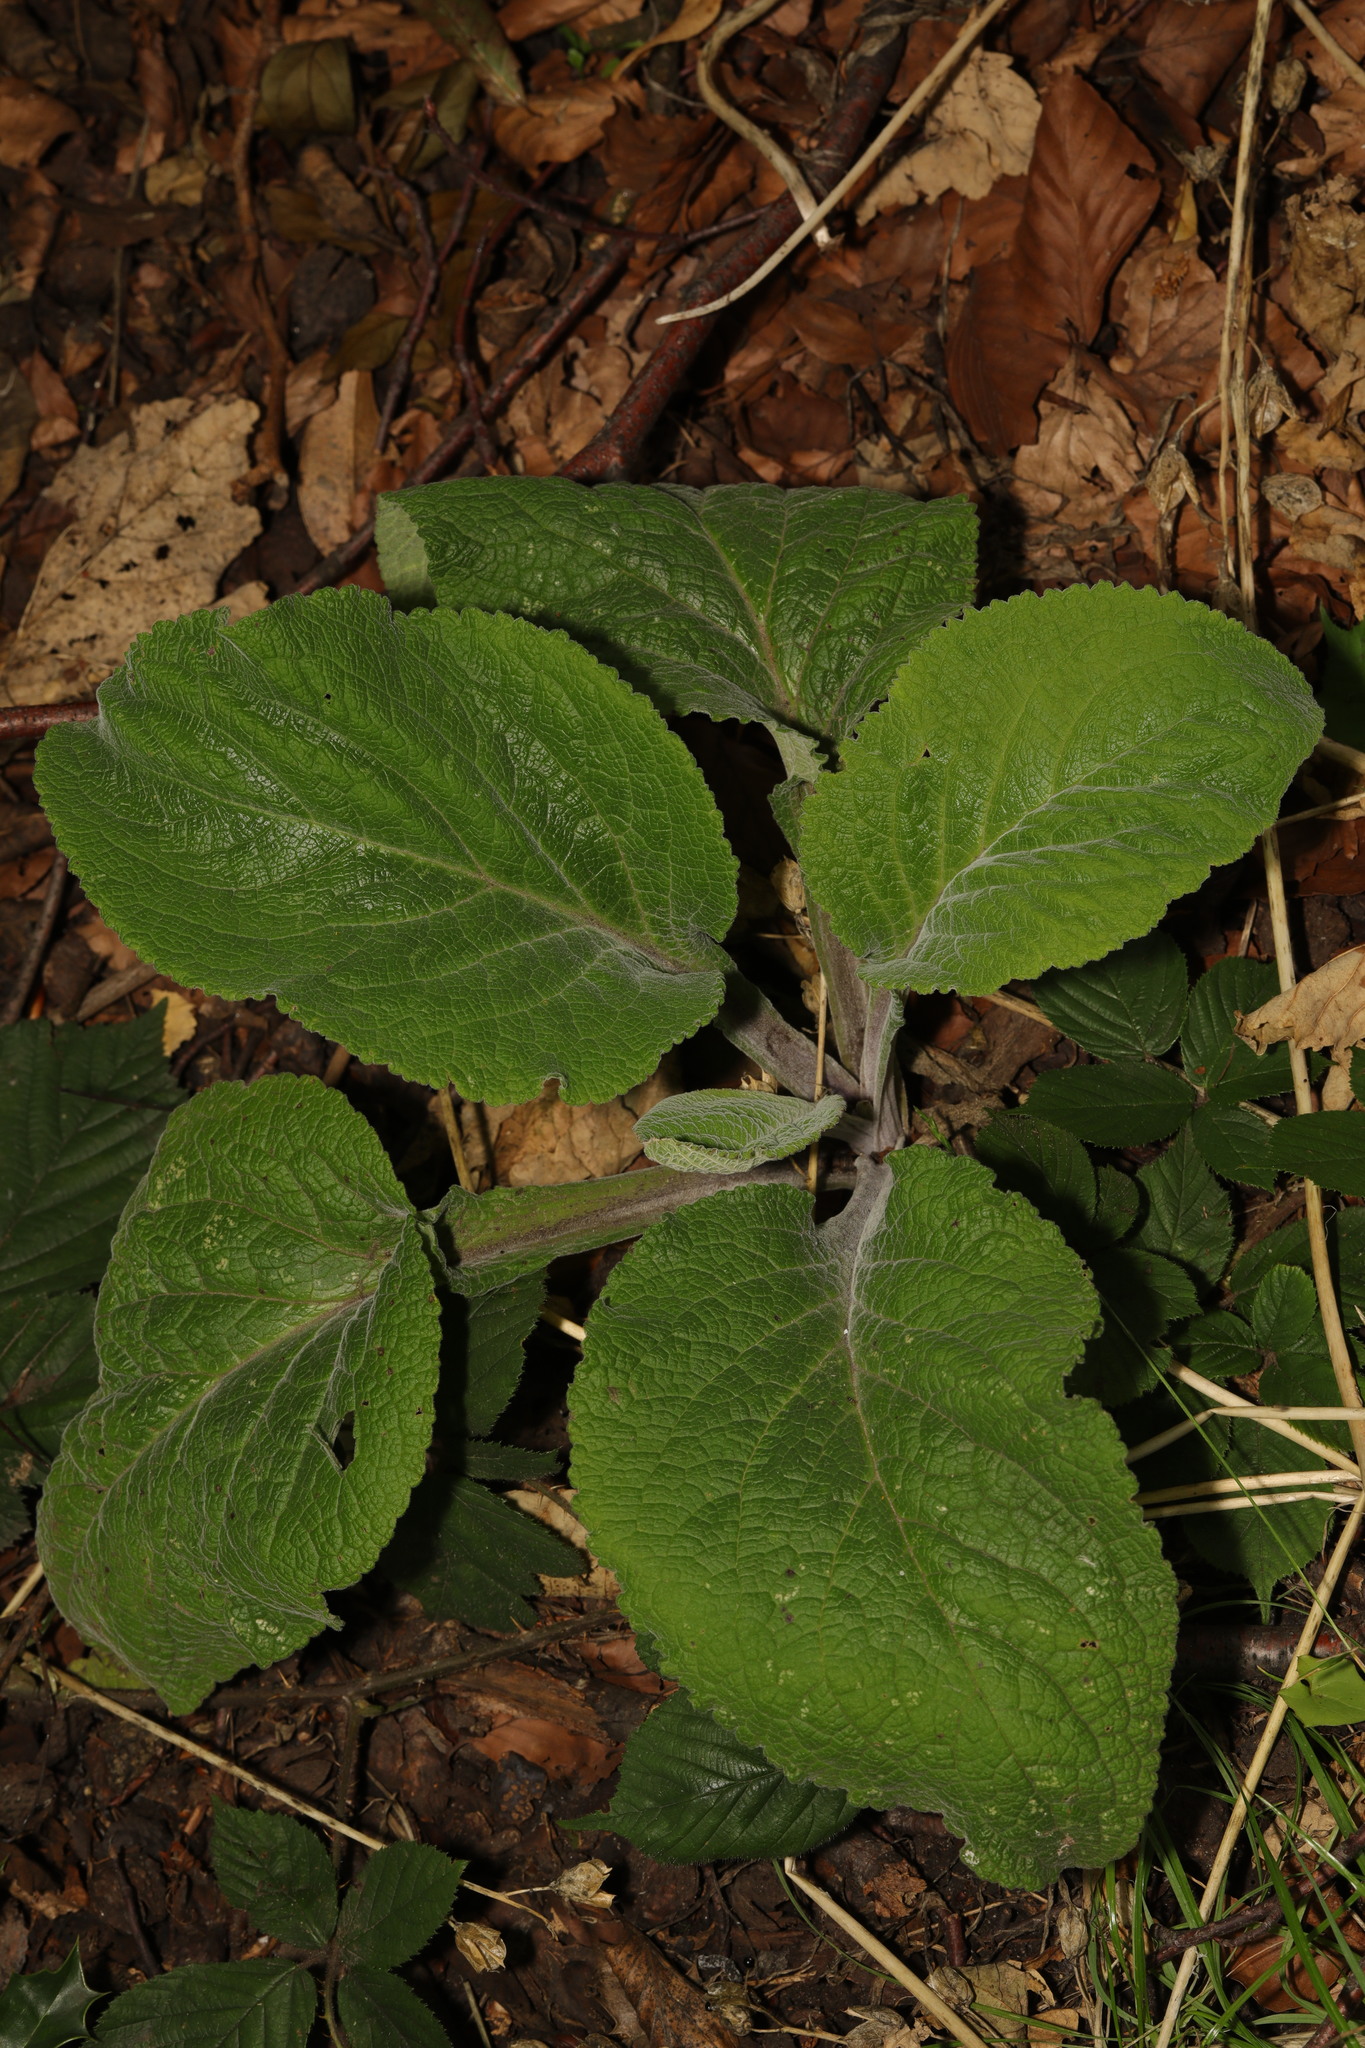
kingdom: Plantae
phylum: Tracheophyta
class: Magnoliopsida
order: Lamiales
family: Plantaginaceae
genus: Digitalis
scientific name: Digitalis purpurea
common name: Foxglove
